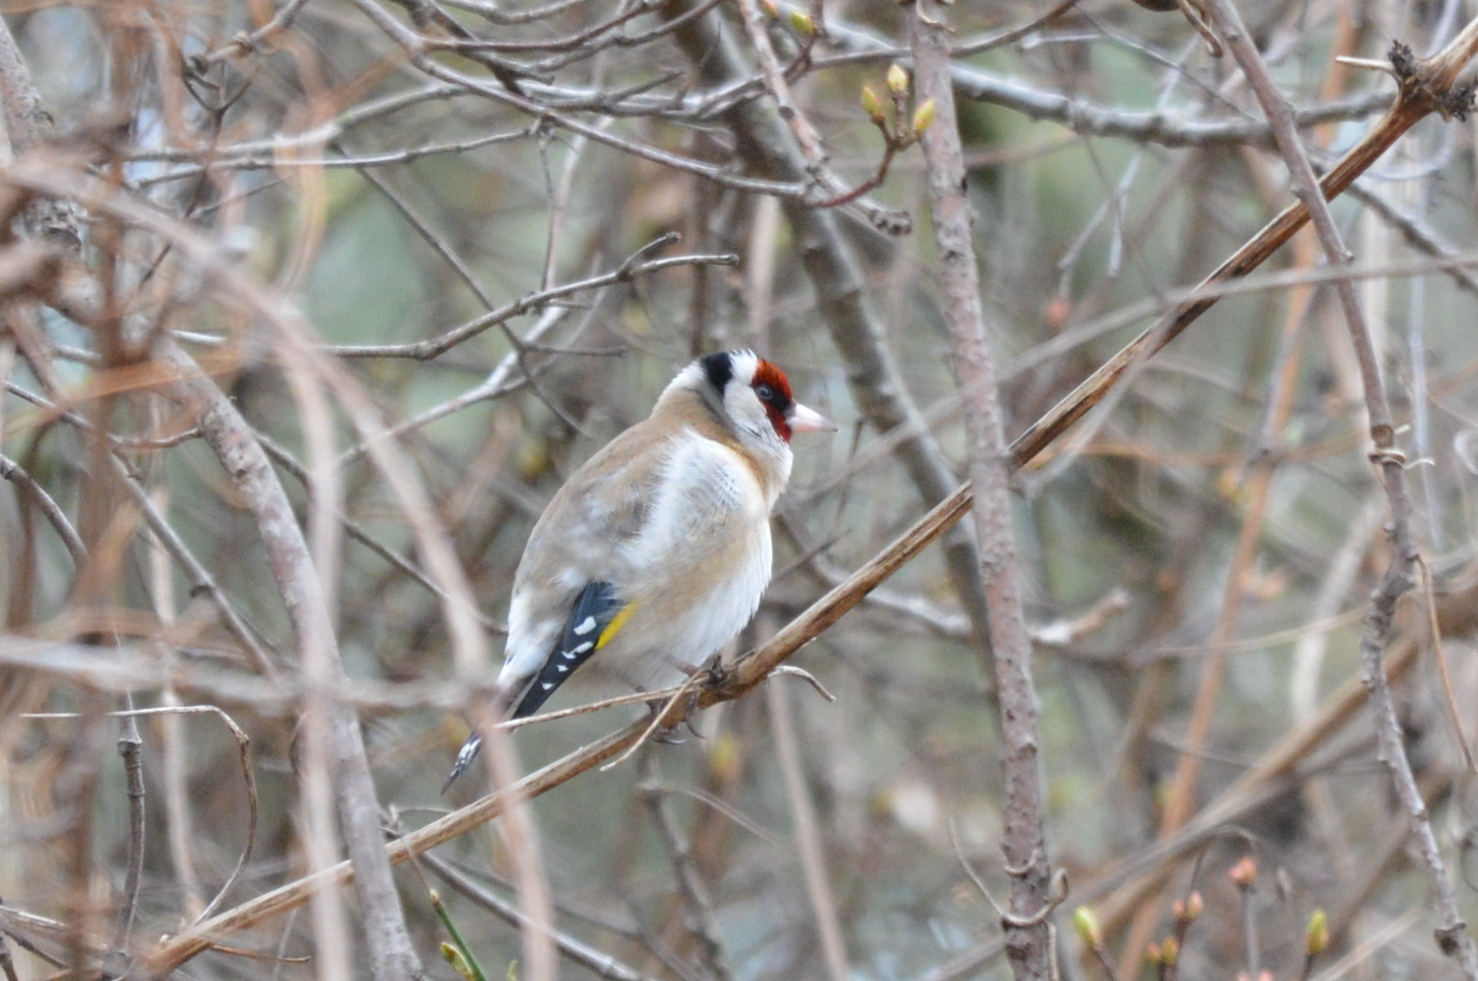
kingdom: Animalia
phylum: Chordata
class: Aves
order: Passeriformes
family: Fringillidae
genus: Carduelis
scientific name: Carduelis carduelis
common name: European goldfinch
